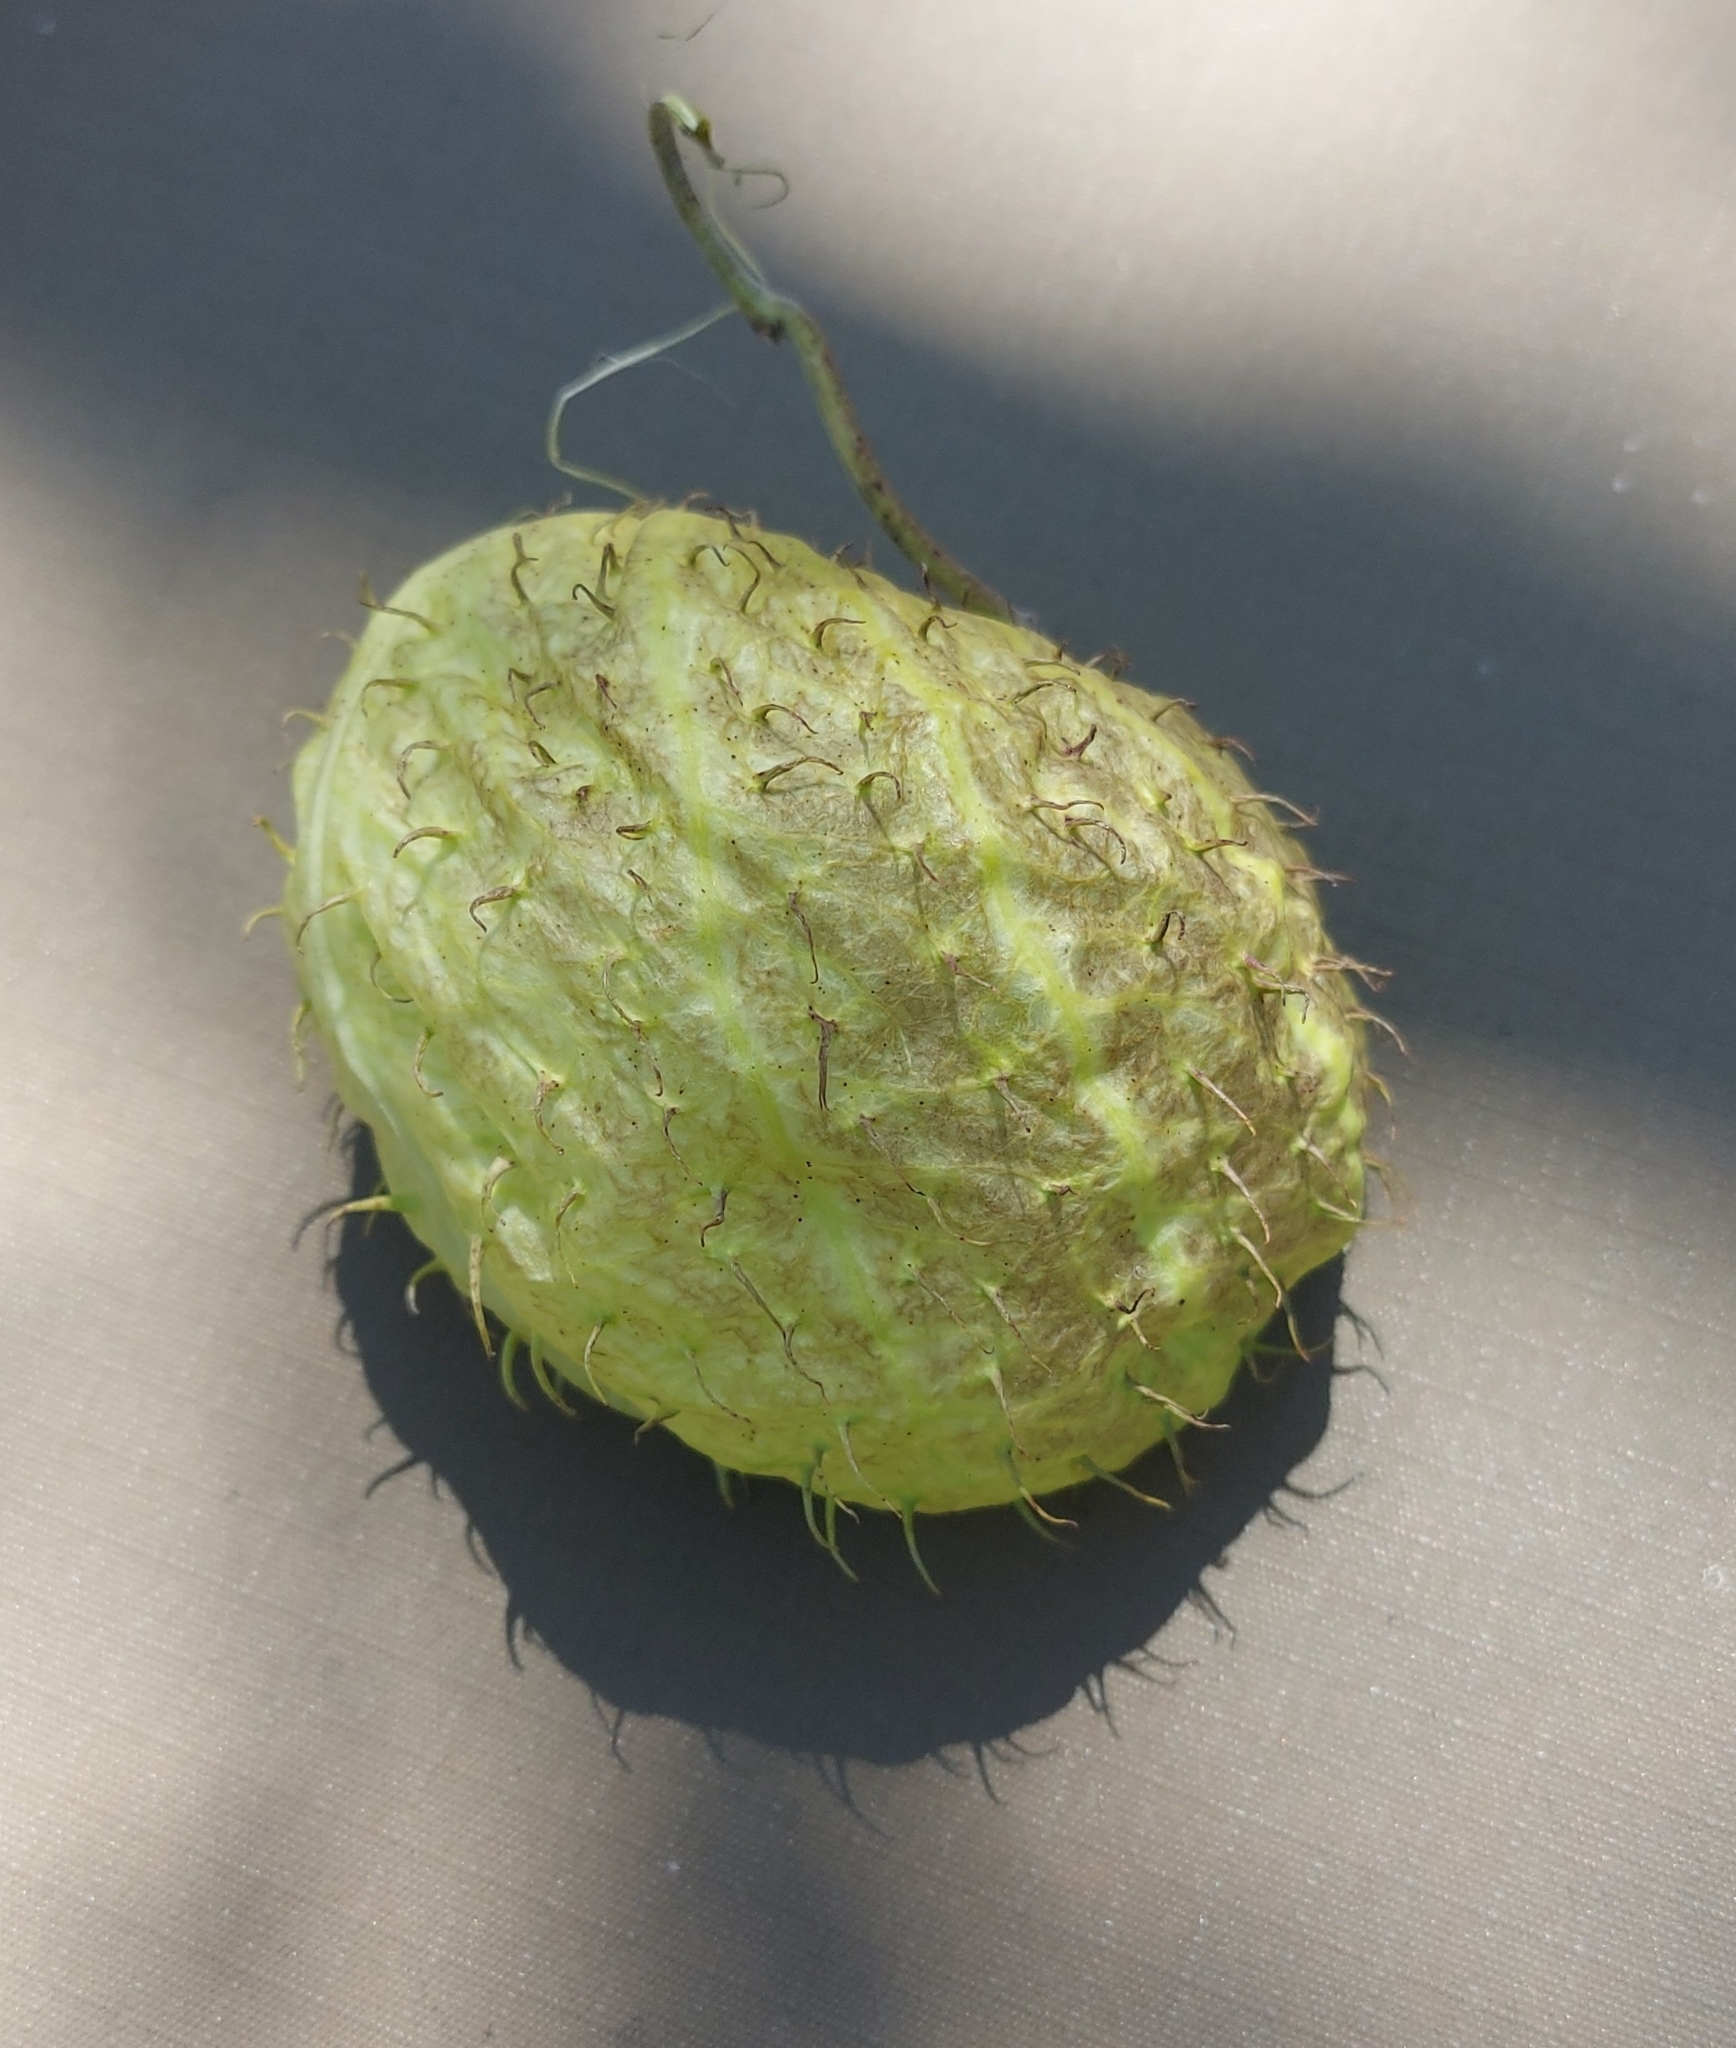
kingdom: Plantae
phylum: Tracheophyta
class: Magnoliopsida
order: Gentianales
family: Apocynaceae
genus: Gomphocarpus
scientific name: Gomphocarpus physocarpus
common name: Balloon cotton bush
